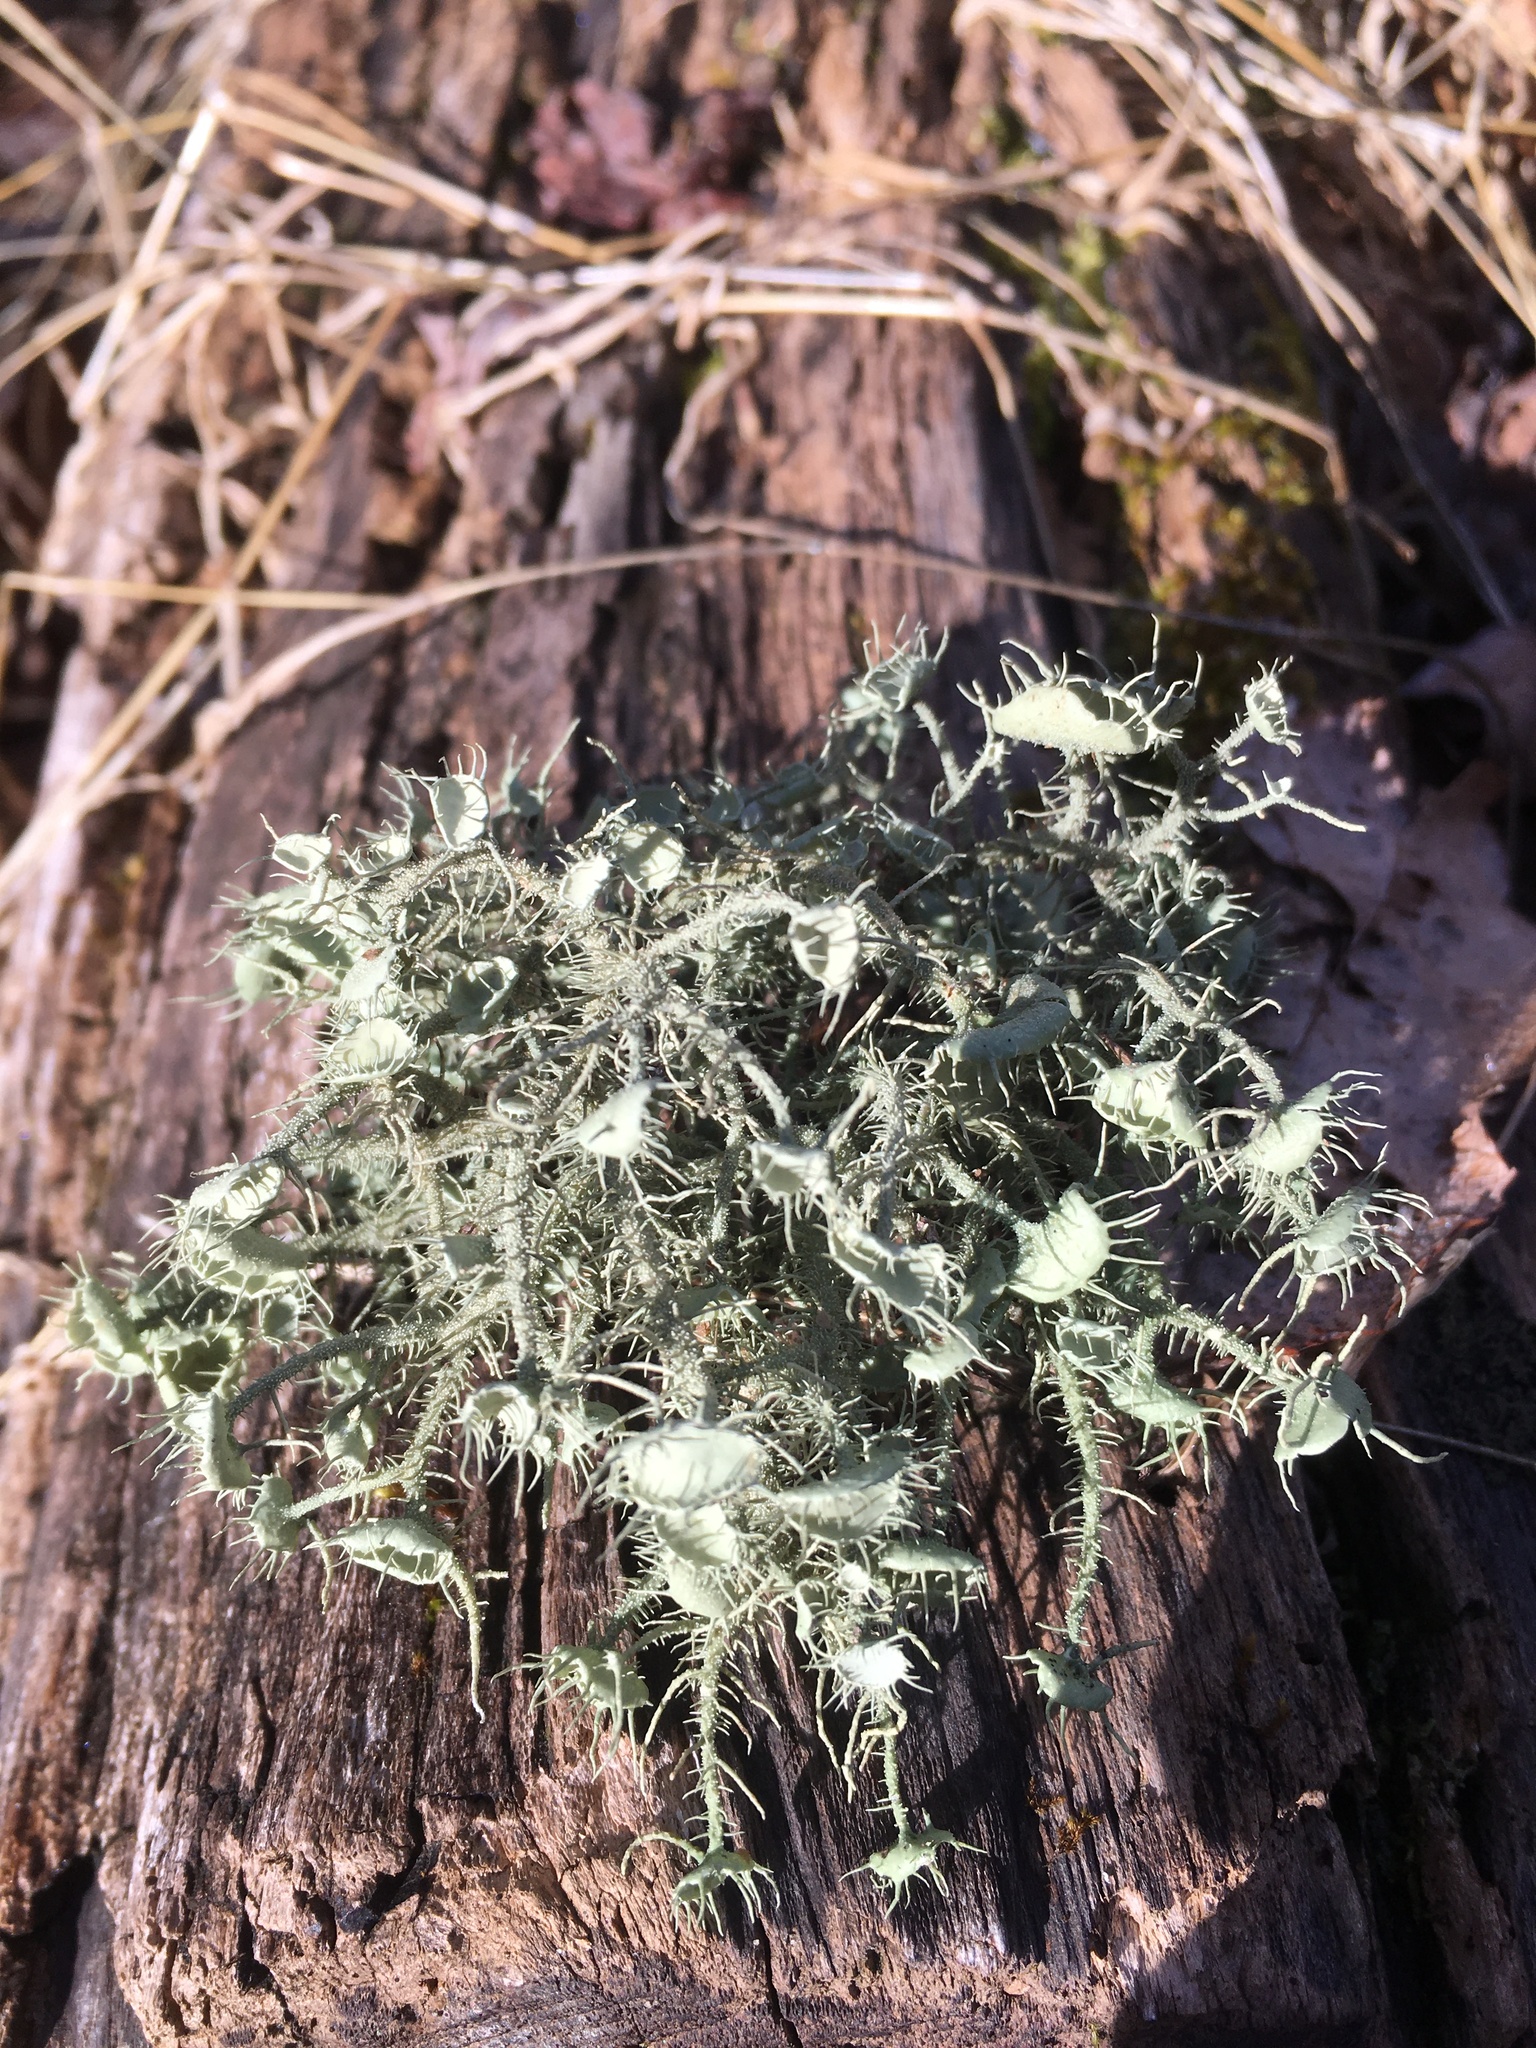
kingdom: Fungi
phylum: Ascomycota
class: Lecanoromycetes
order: Lecanorales
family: Parmeliaceae
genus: Usnea
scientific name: Usnea strigosa
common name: Bushy beard lichen
